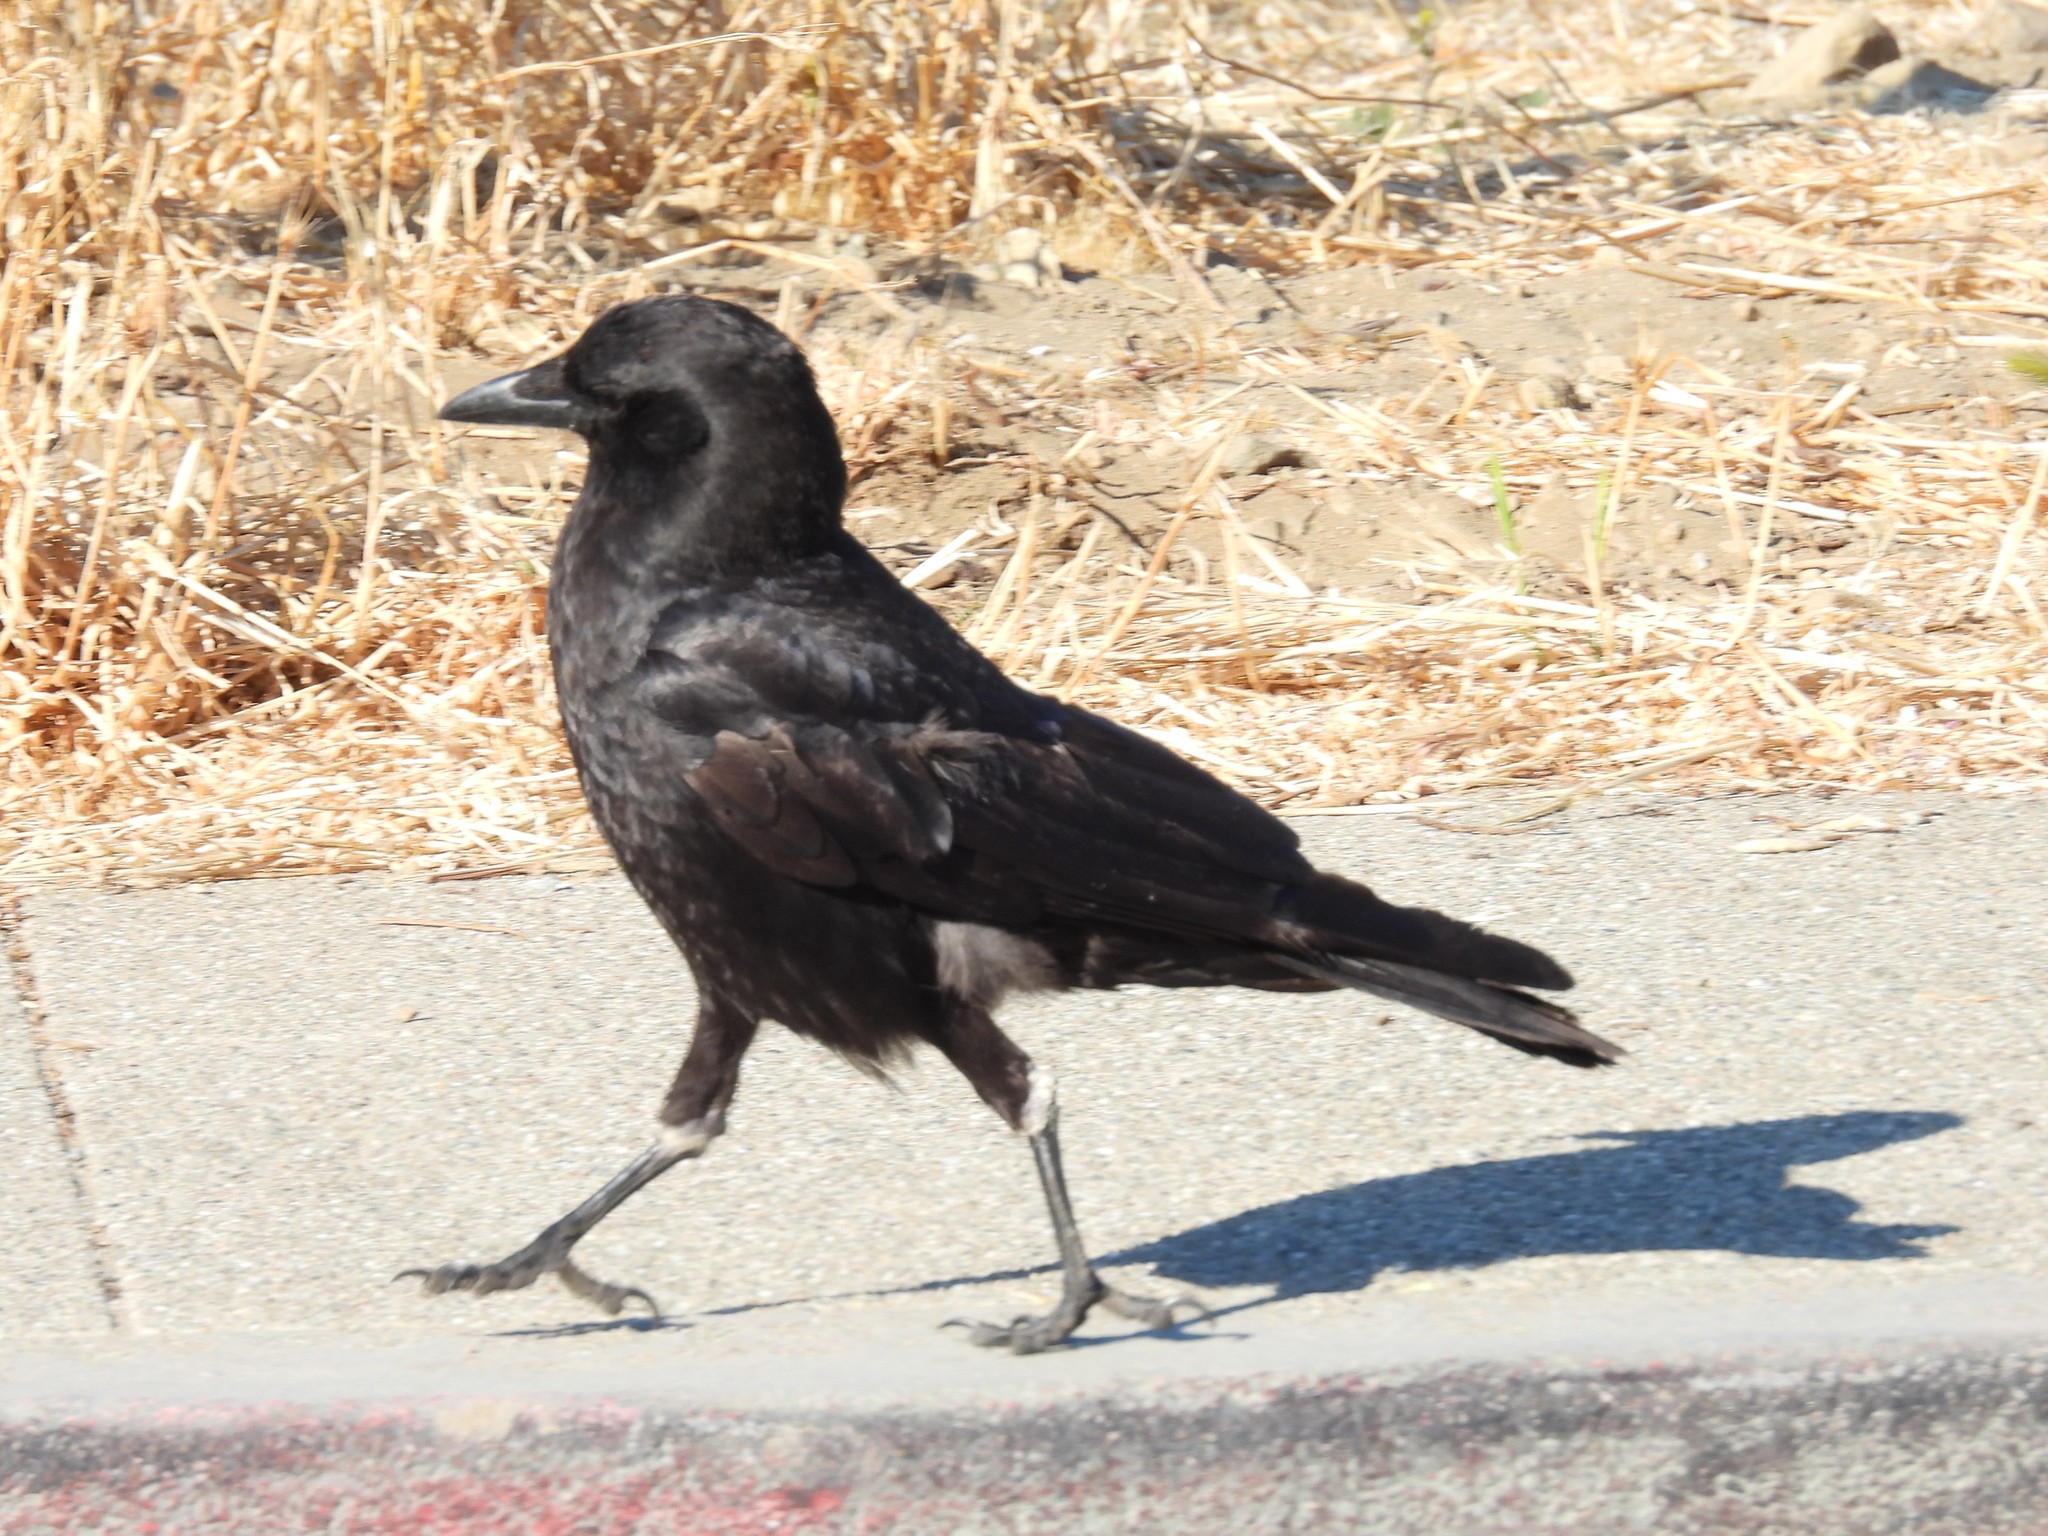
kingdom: Animalia
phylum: Chordata
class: Aves
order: Passeriformes
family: Corvidae
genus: Corvus
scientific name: Corvus brachyrhynchos
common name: American crow
